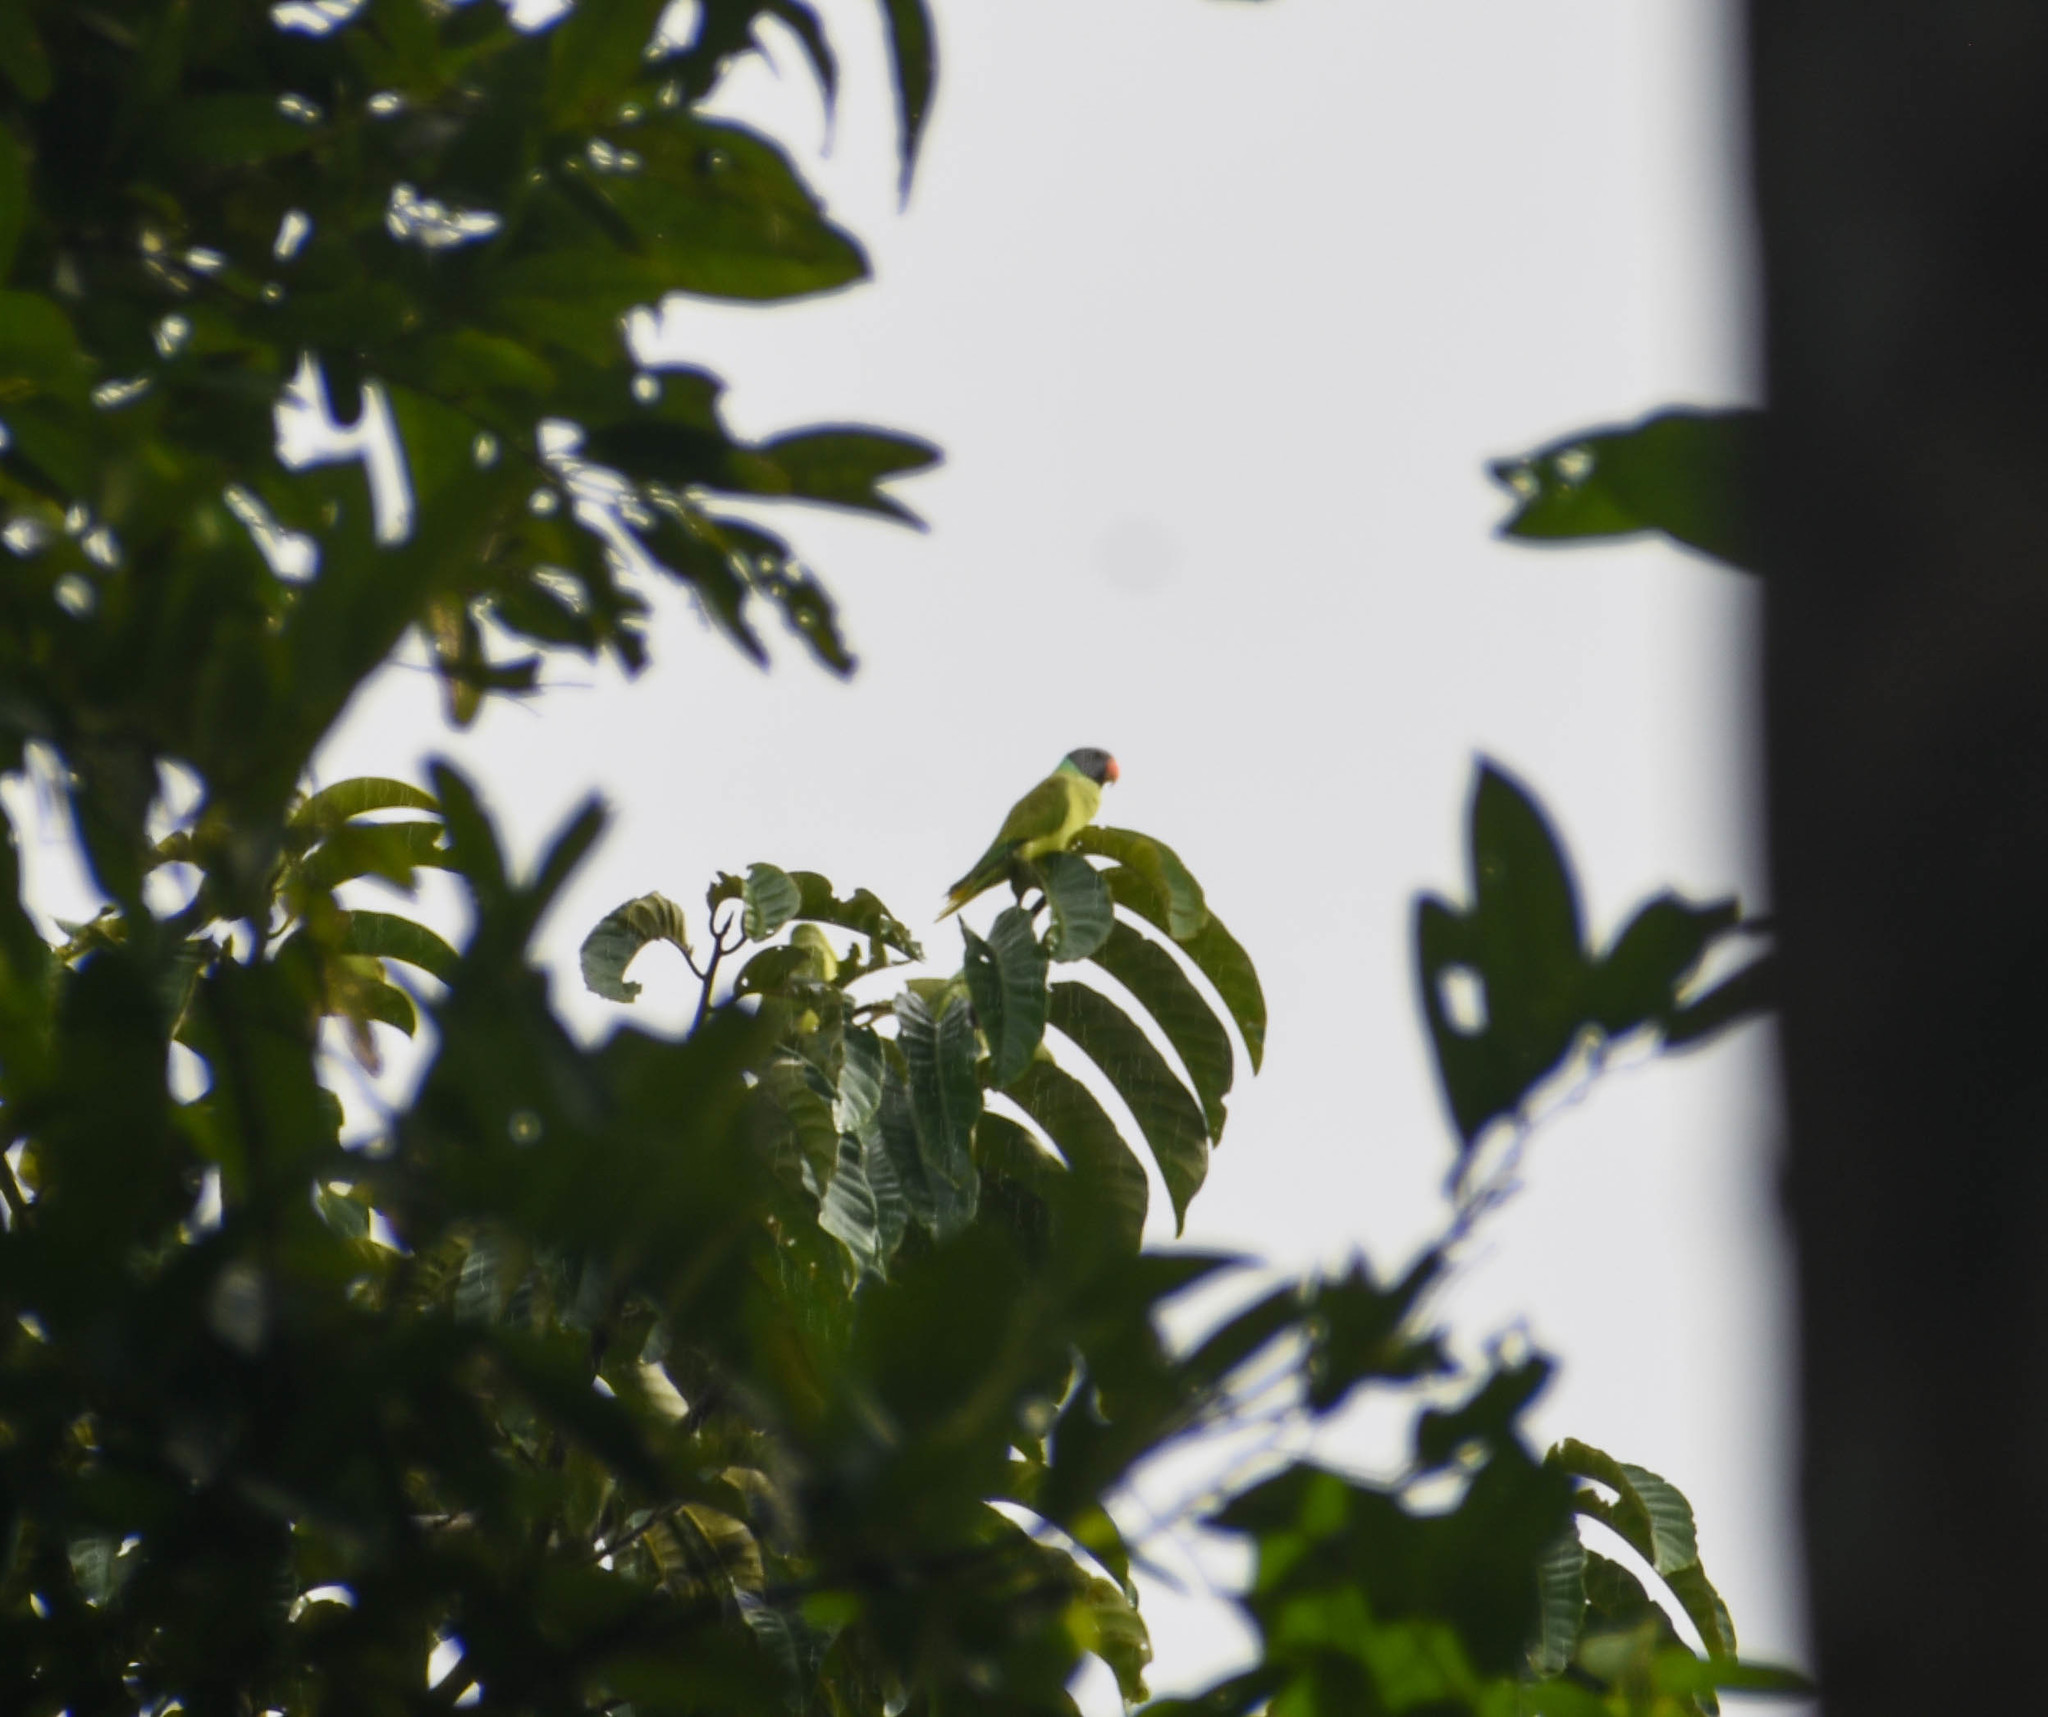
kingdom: Animalia
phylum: Chordata
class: Aves
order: Psittaciformes
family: Psittacidae
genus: Psittacula
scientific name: Psittacula finschii
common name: Grey-headed parakeet
